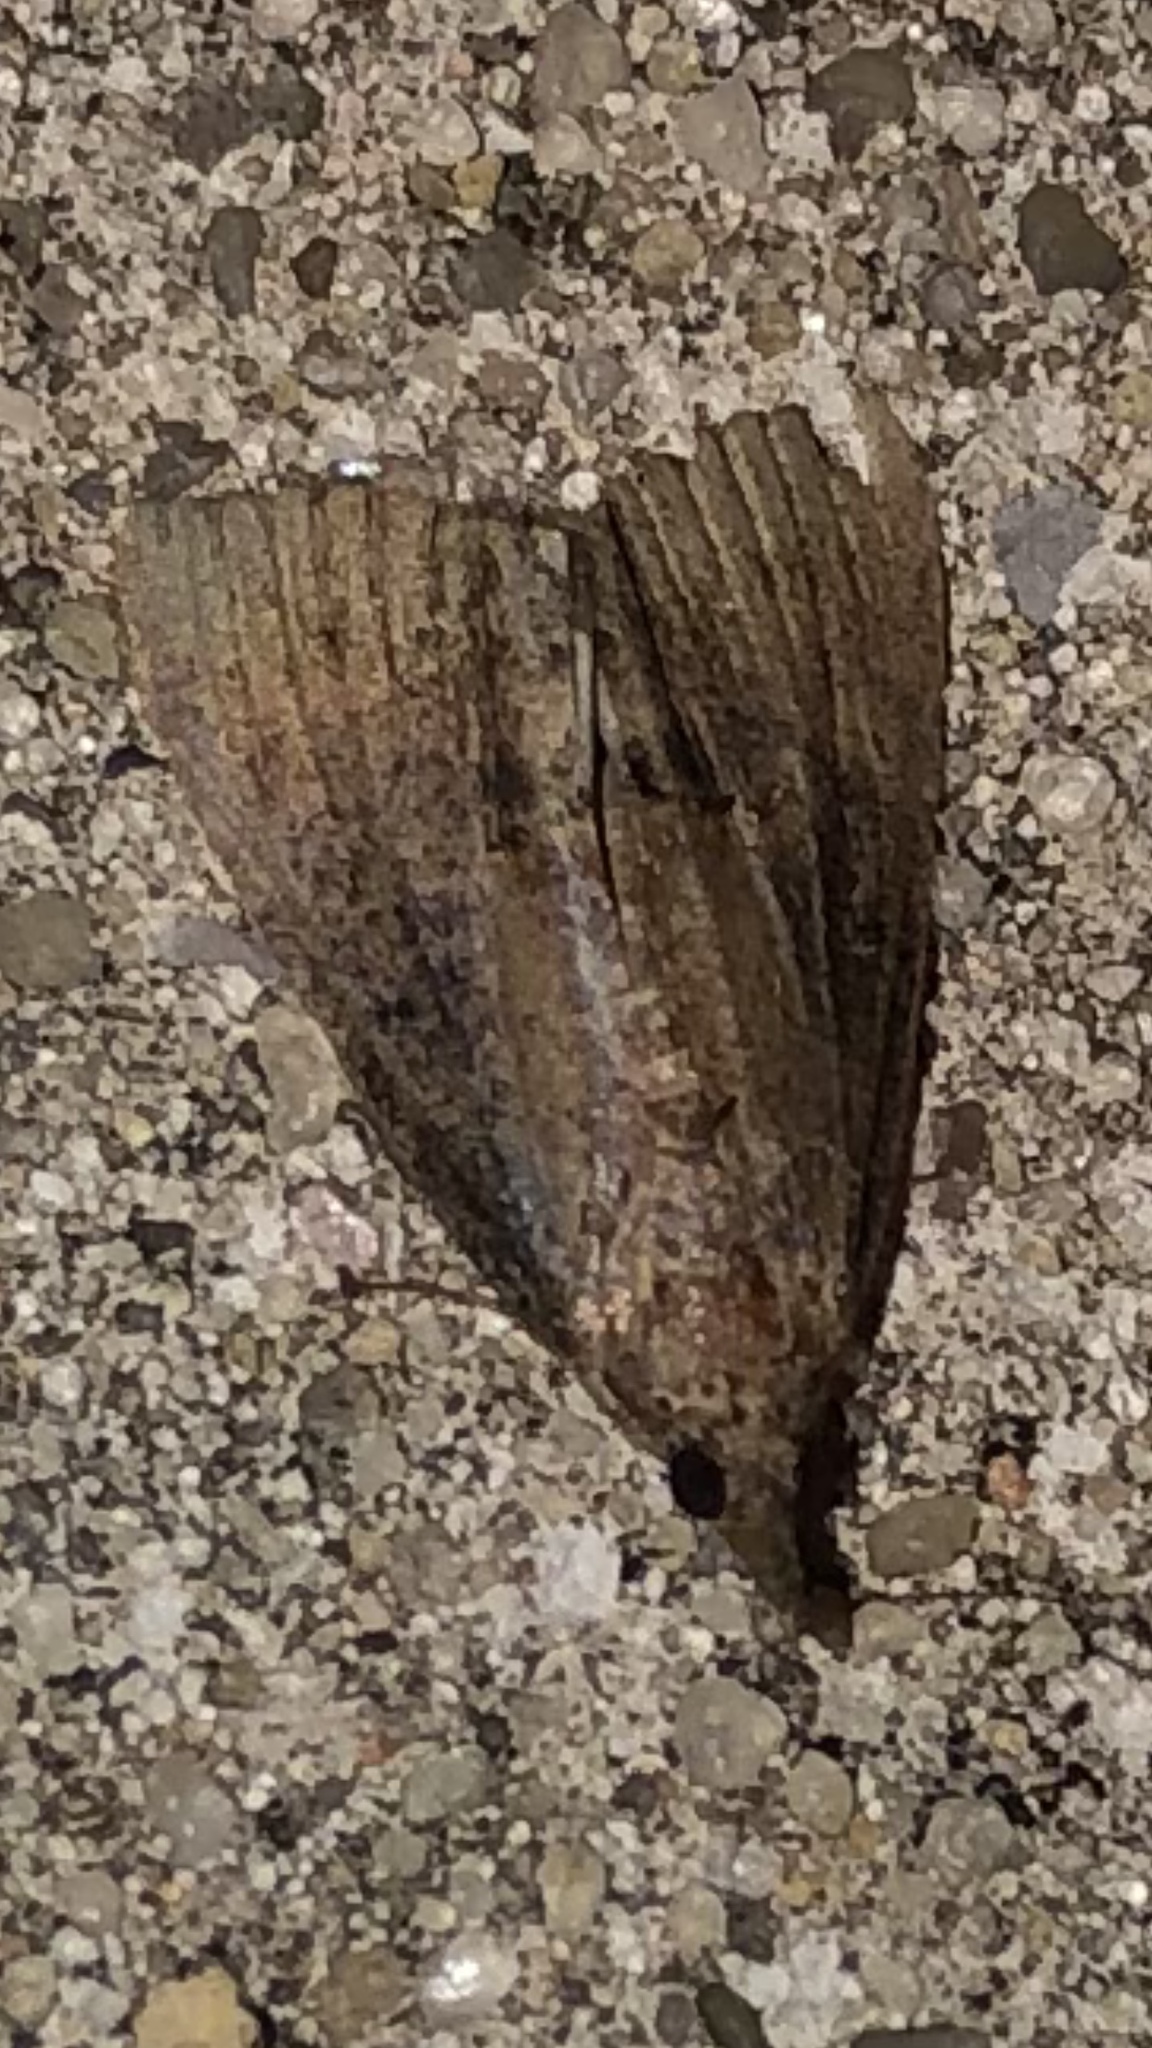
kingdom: Animalia
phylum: Arthropoda
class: Insecta
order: Lepidoptera
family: Erebidae
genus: Hypena
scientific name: Hypena scabra
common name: Green cloverworm
